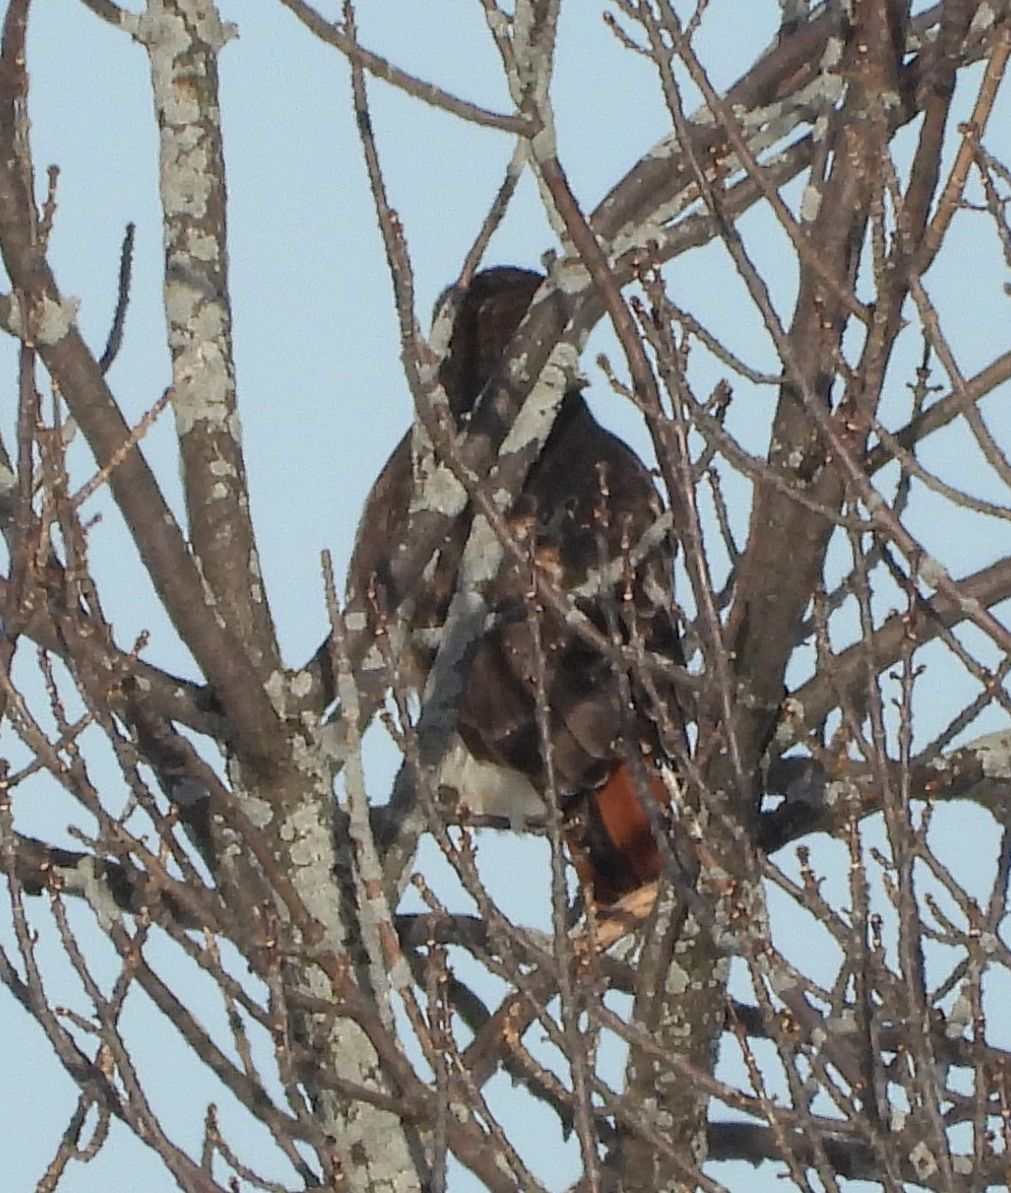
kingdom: Animalia
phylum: Chordata
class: Aves
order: Accipitriformes
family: Accipitridae
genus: Buteo
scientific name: Buteo jamaicensis
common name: Red-tailed hawk
